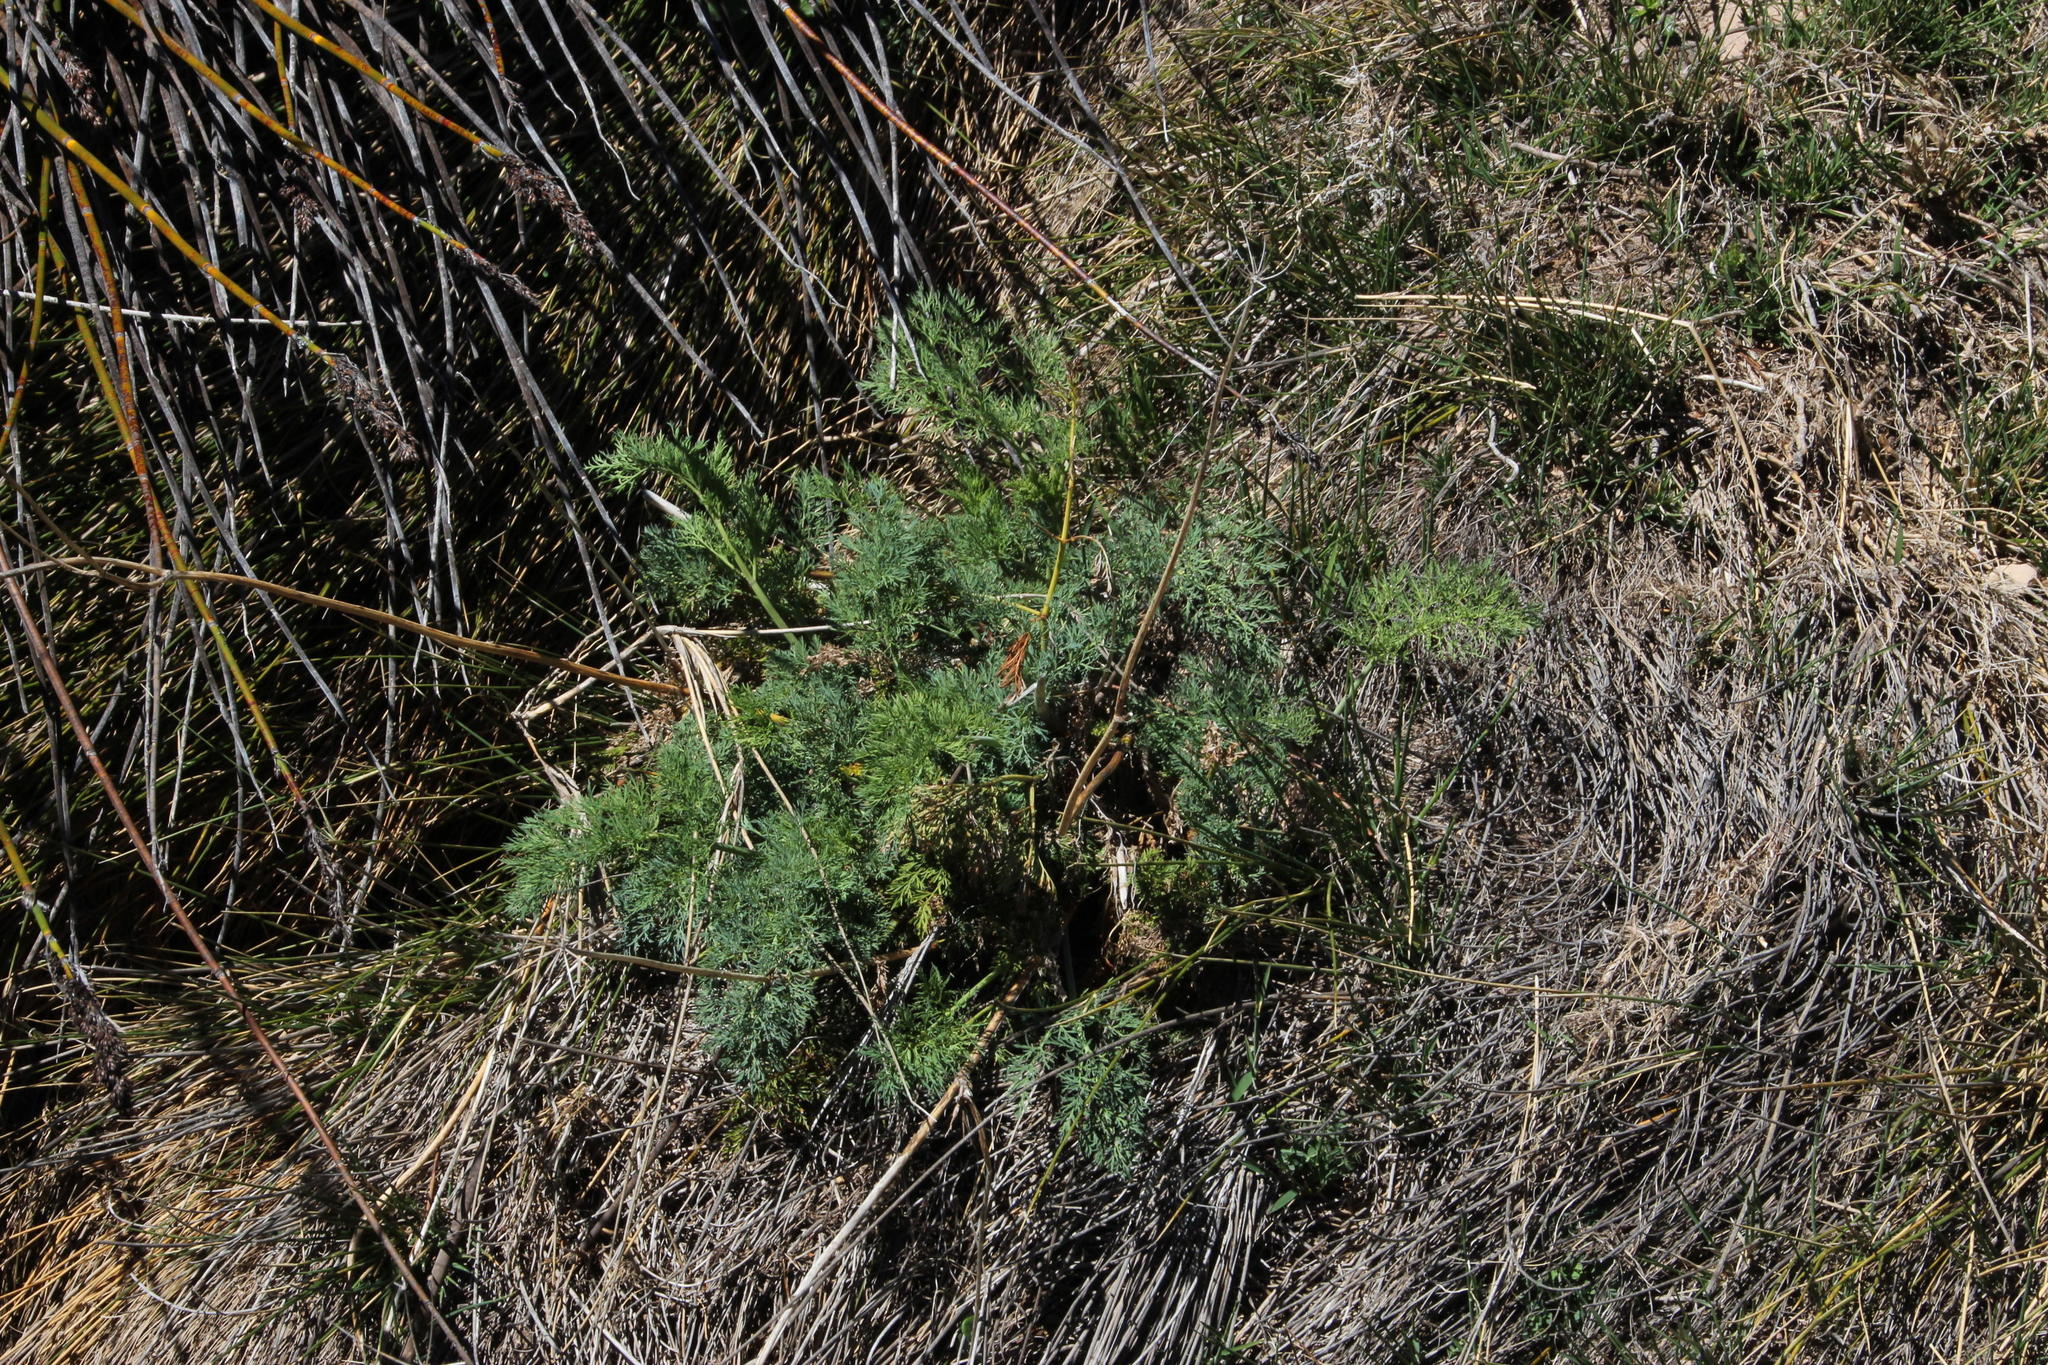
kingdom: Plantae
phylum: Tracheophyta
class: Magnoliopsida
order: Apiales
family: Apiaceae
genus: Notobubon
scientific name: Notobubon sonderi
